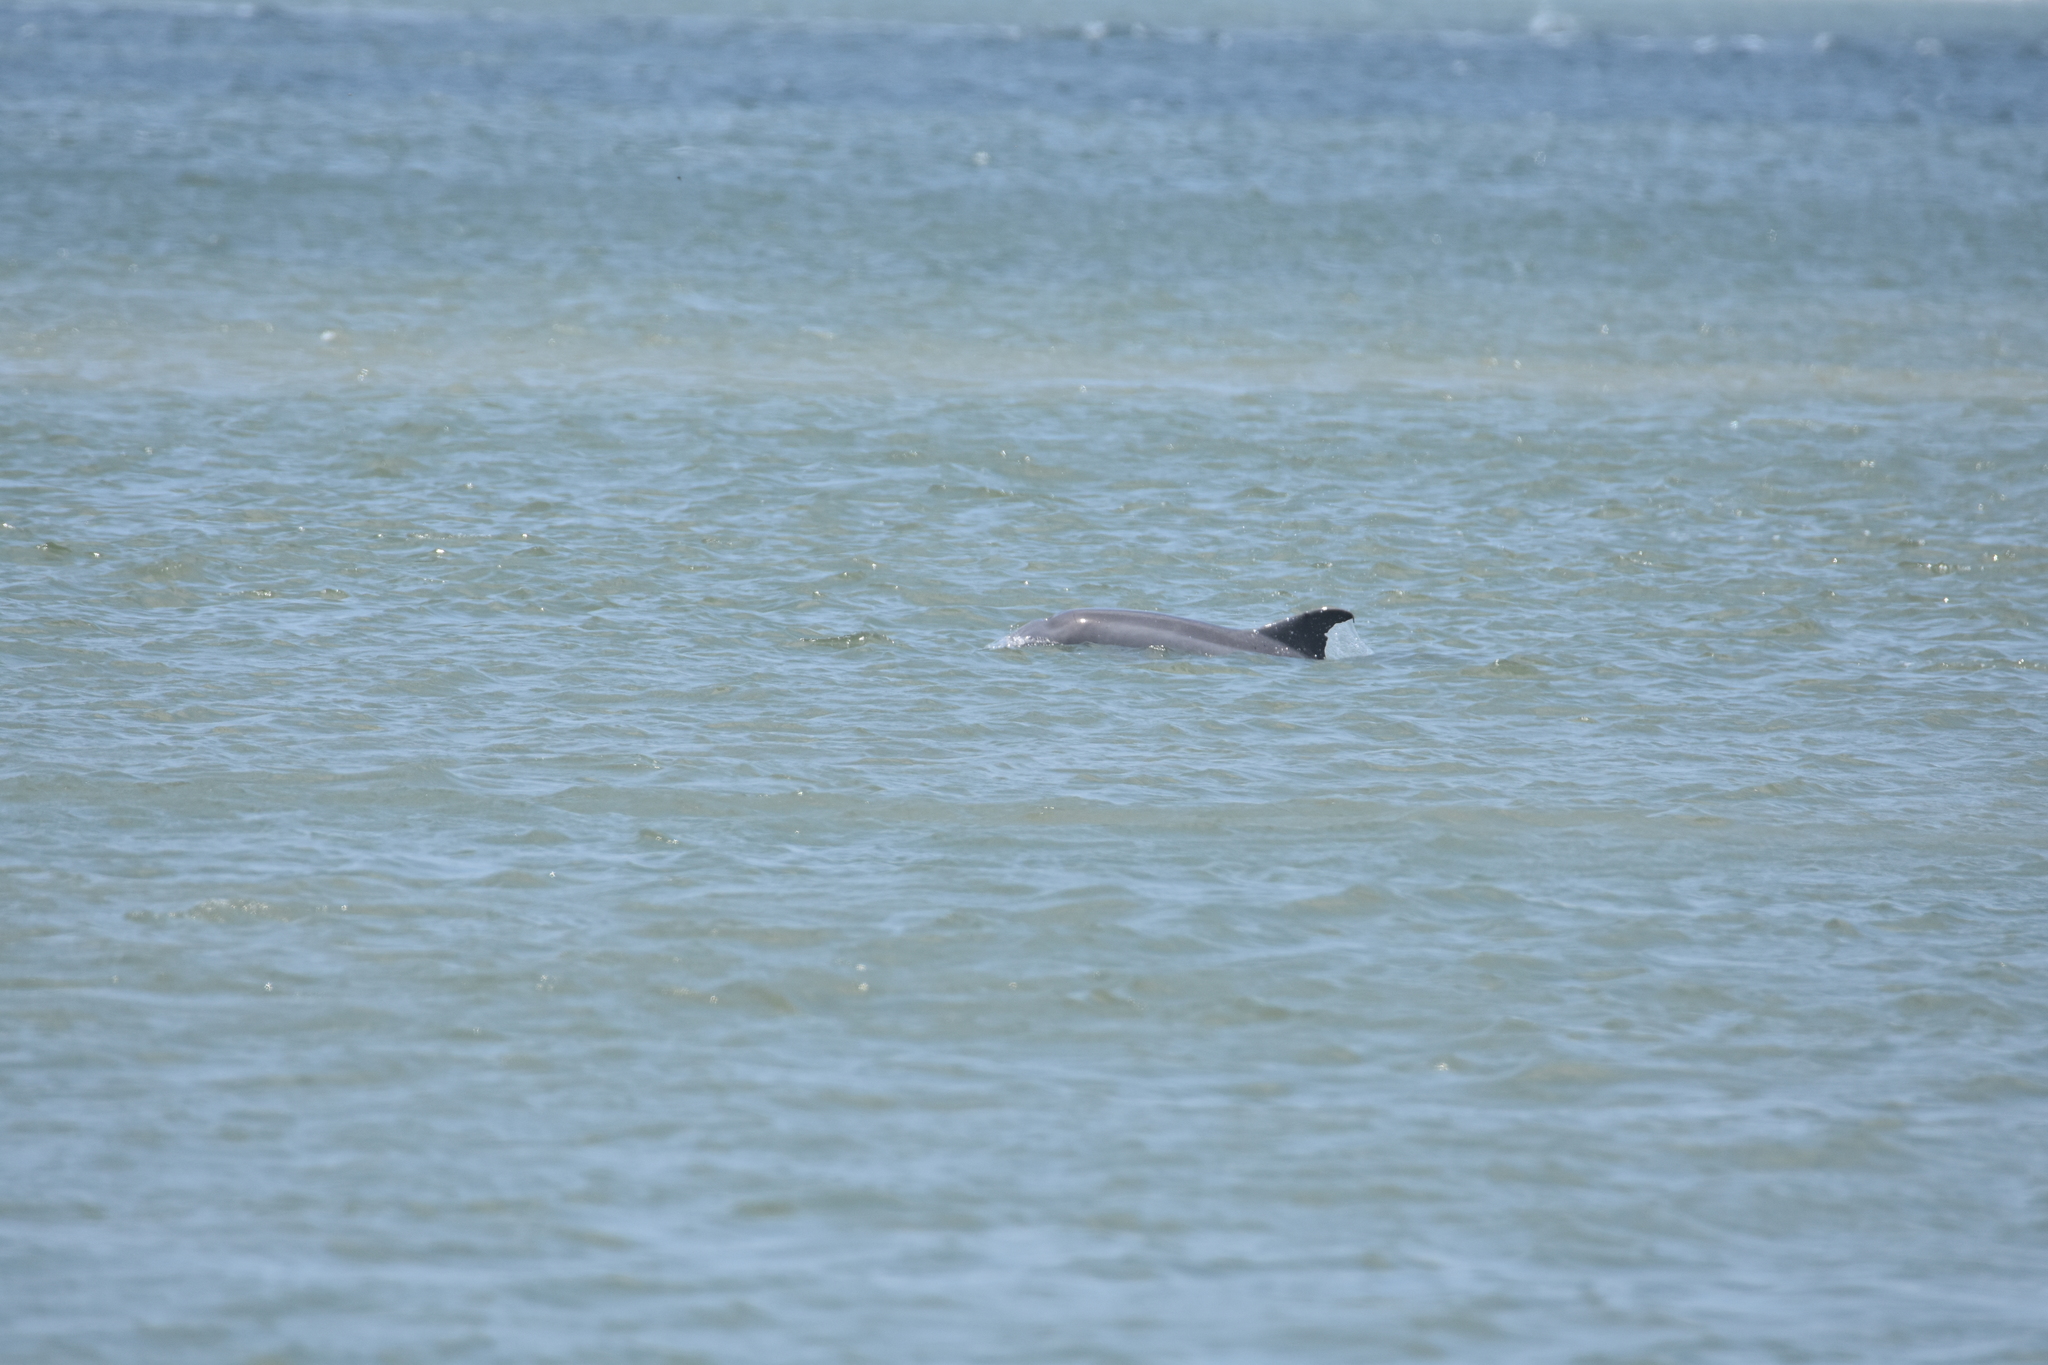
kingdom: Animalia
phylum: Chordata
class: Mammalia
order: Cetacea
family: Delphinidae
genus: Tursiops
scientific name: Tursiops truncatus
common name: Bottlenose dolphin
